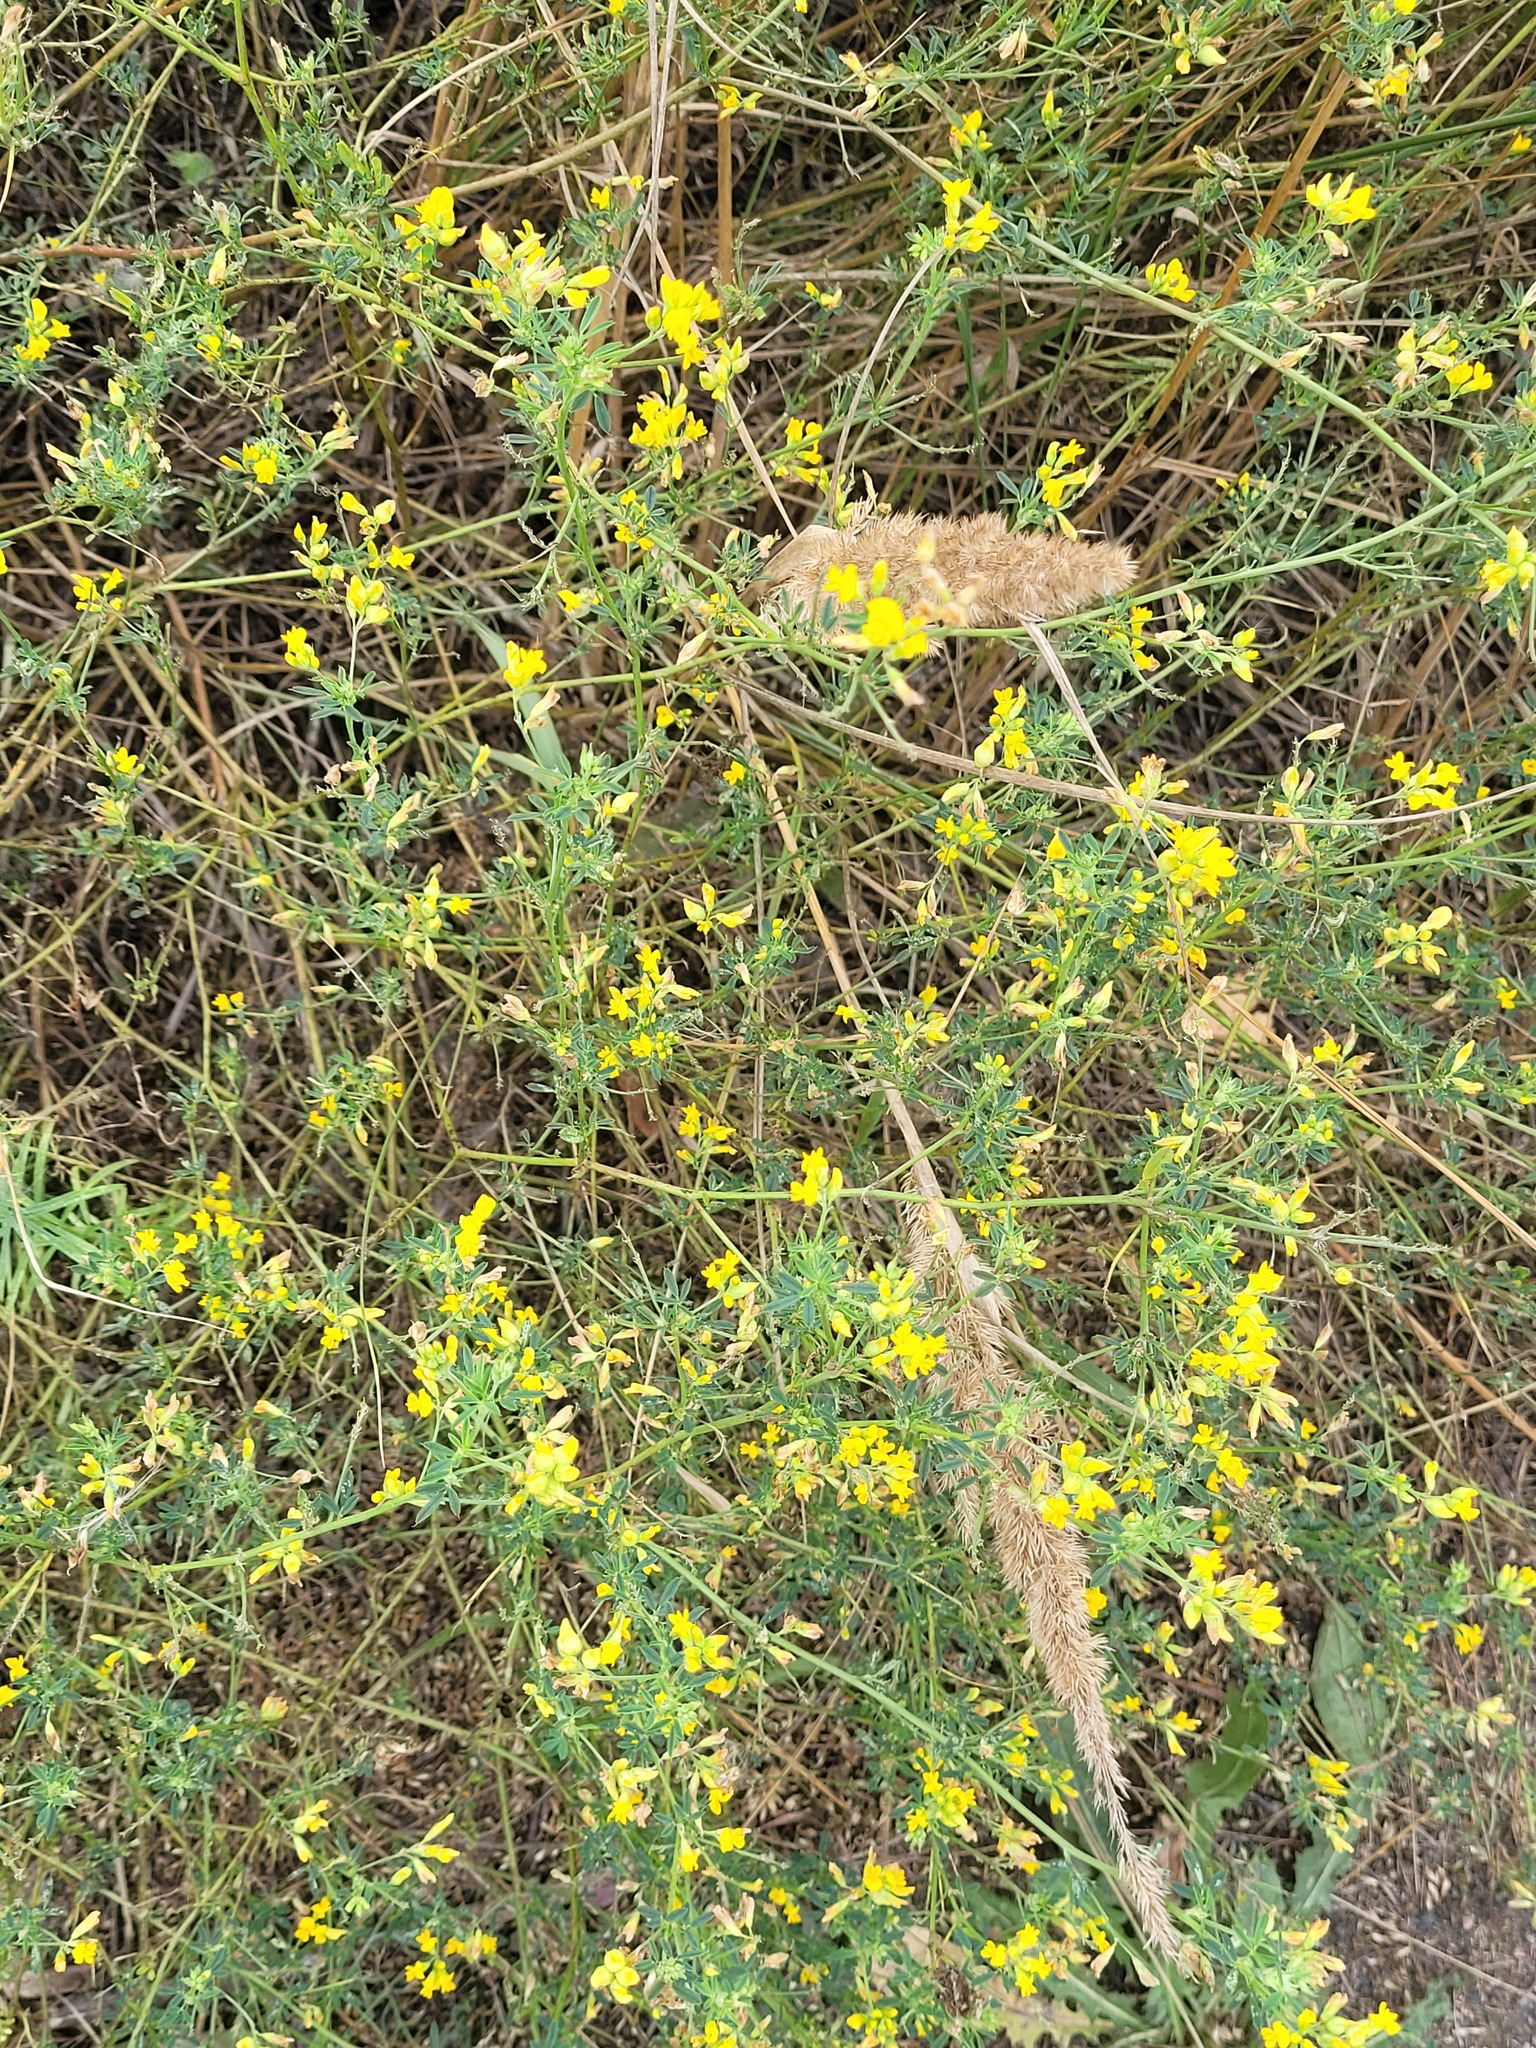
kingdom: Plantae
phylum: Tracheophyta
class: Magnoliopsida
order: Fabales
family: Fabaceae
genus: Medicago
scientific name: Medicago falcata
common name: Sickle medick
